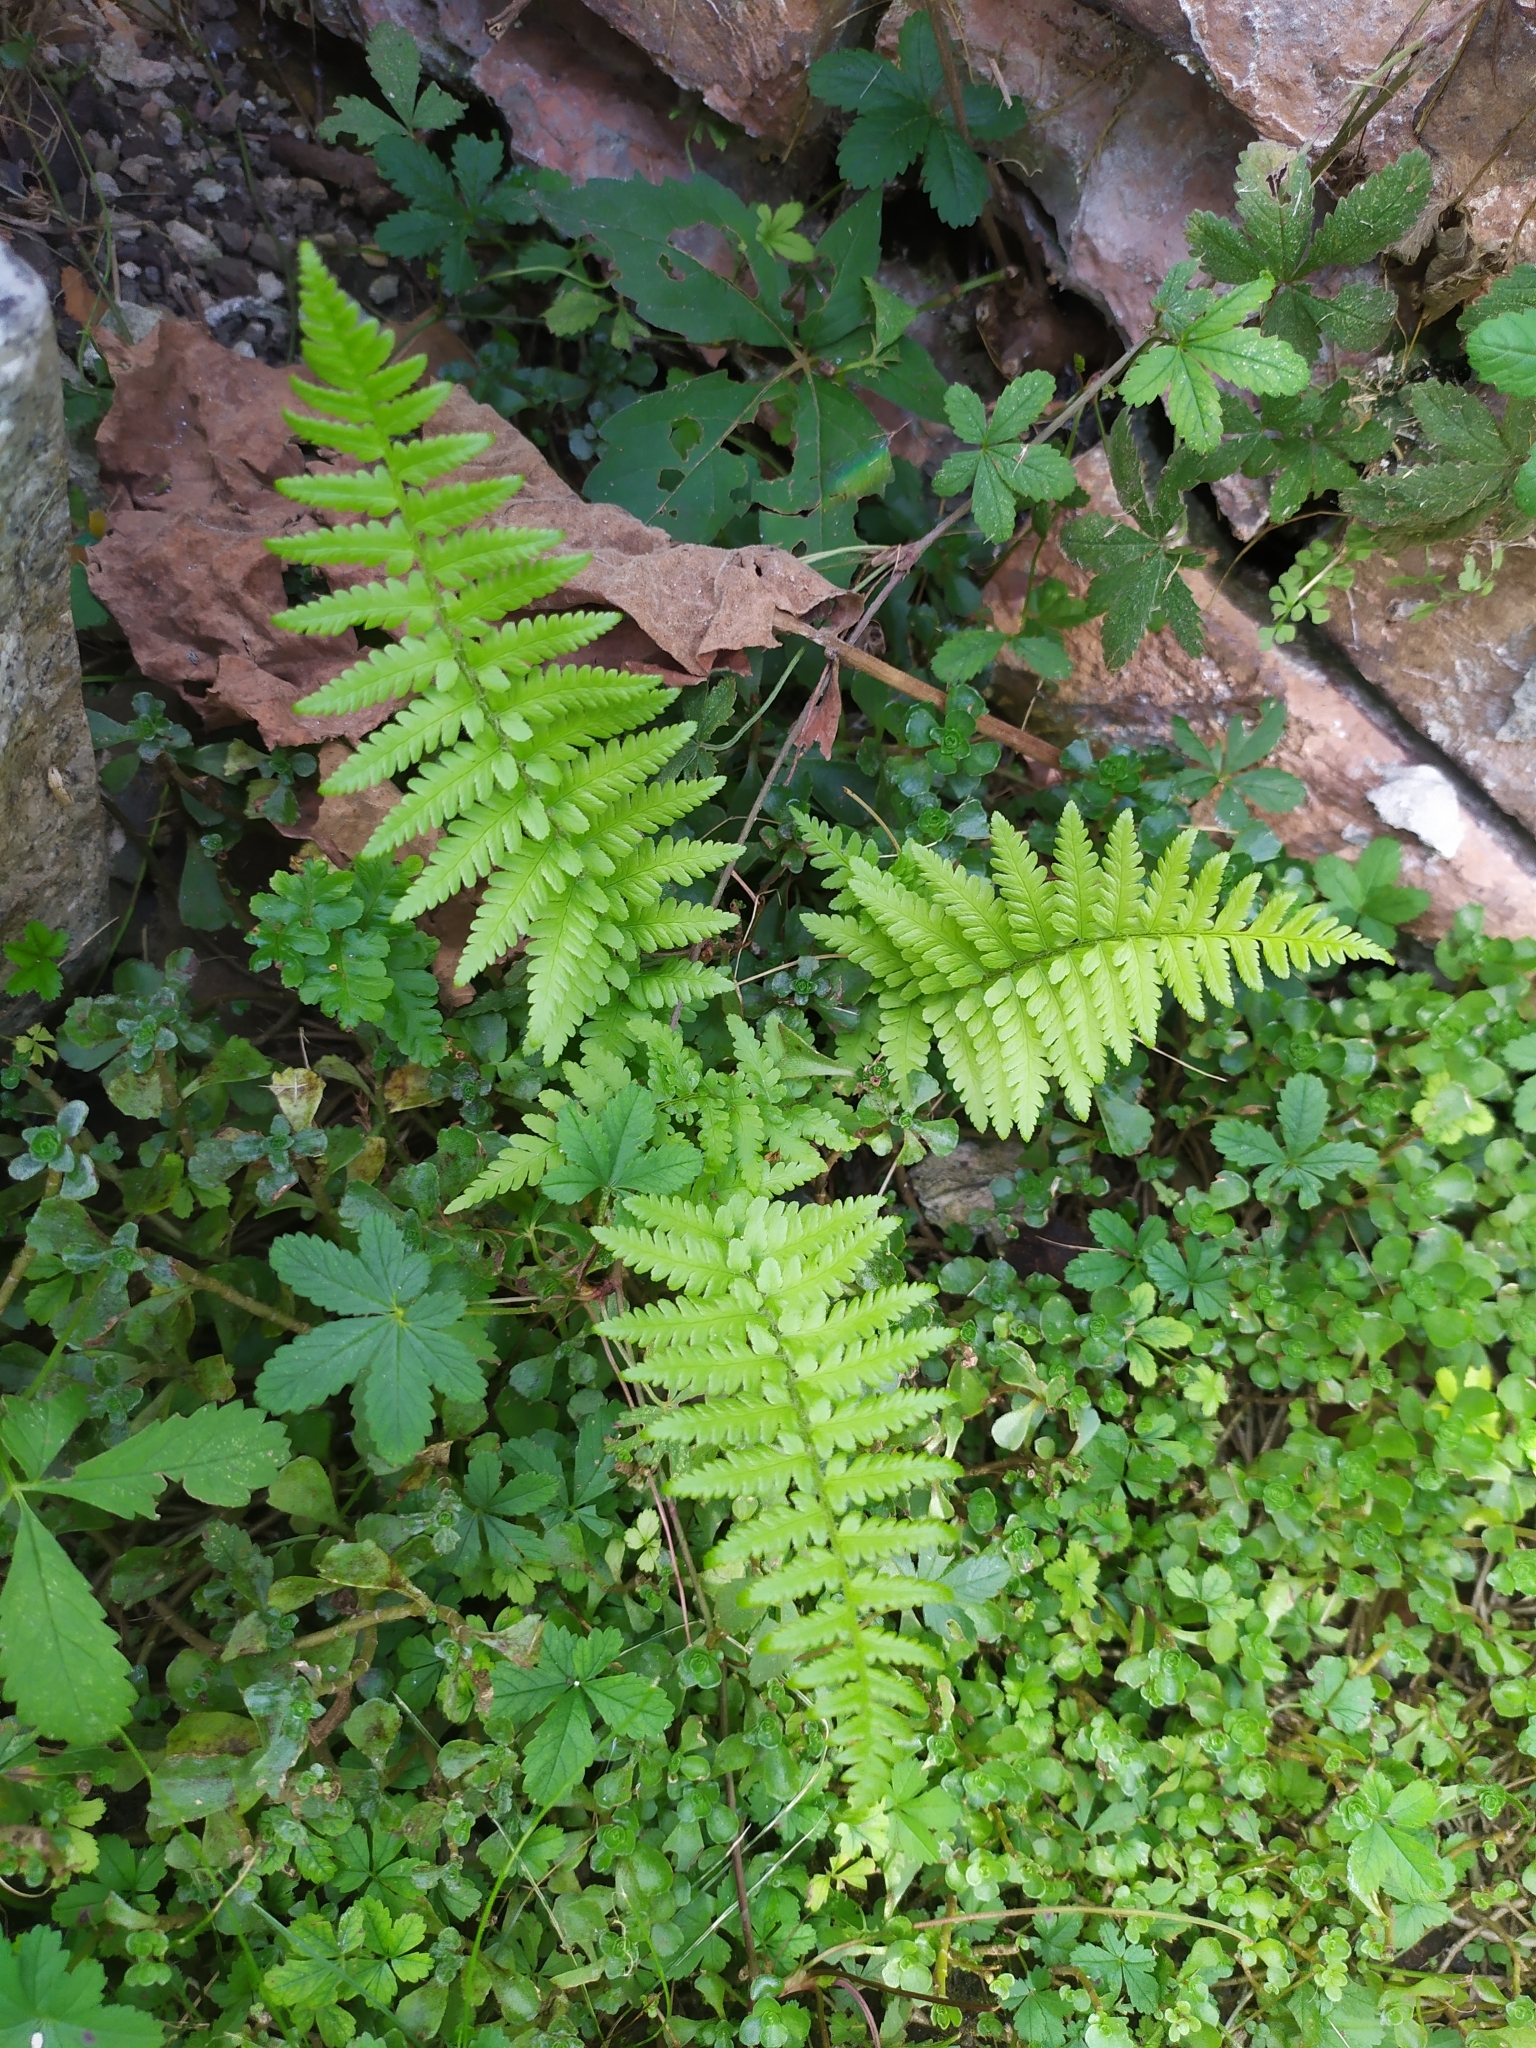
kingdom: Plantae
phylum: Tracheophyta
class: Polypodiopsida
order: Polypodiales
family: Dryopteridaceae
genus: Dryopteris
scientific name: Dryopteris filix-mas
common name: Male fern
